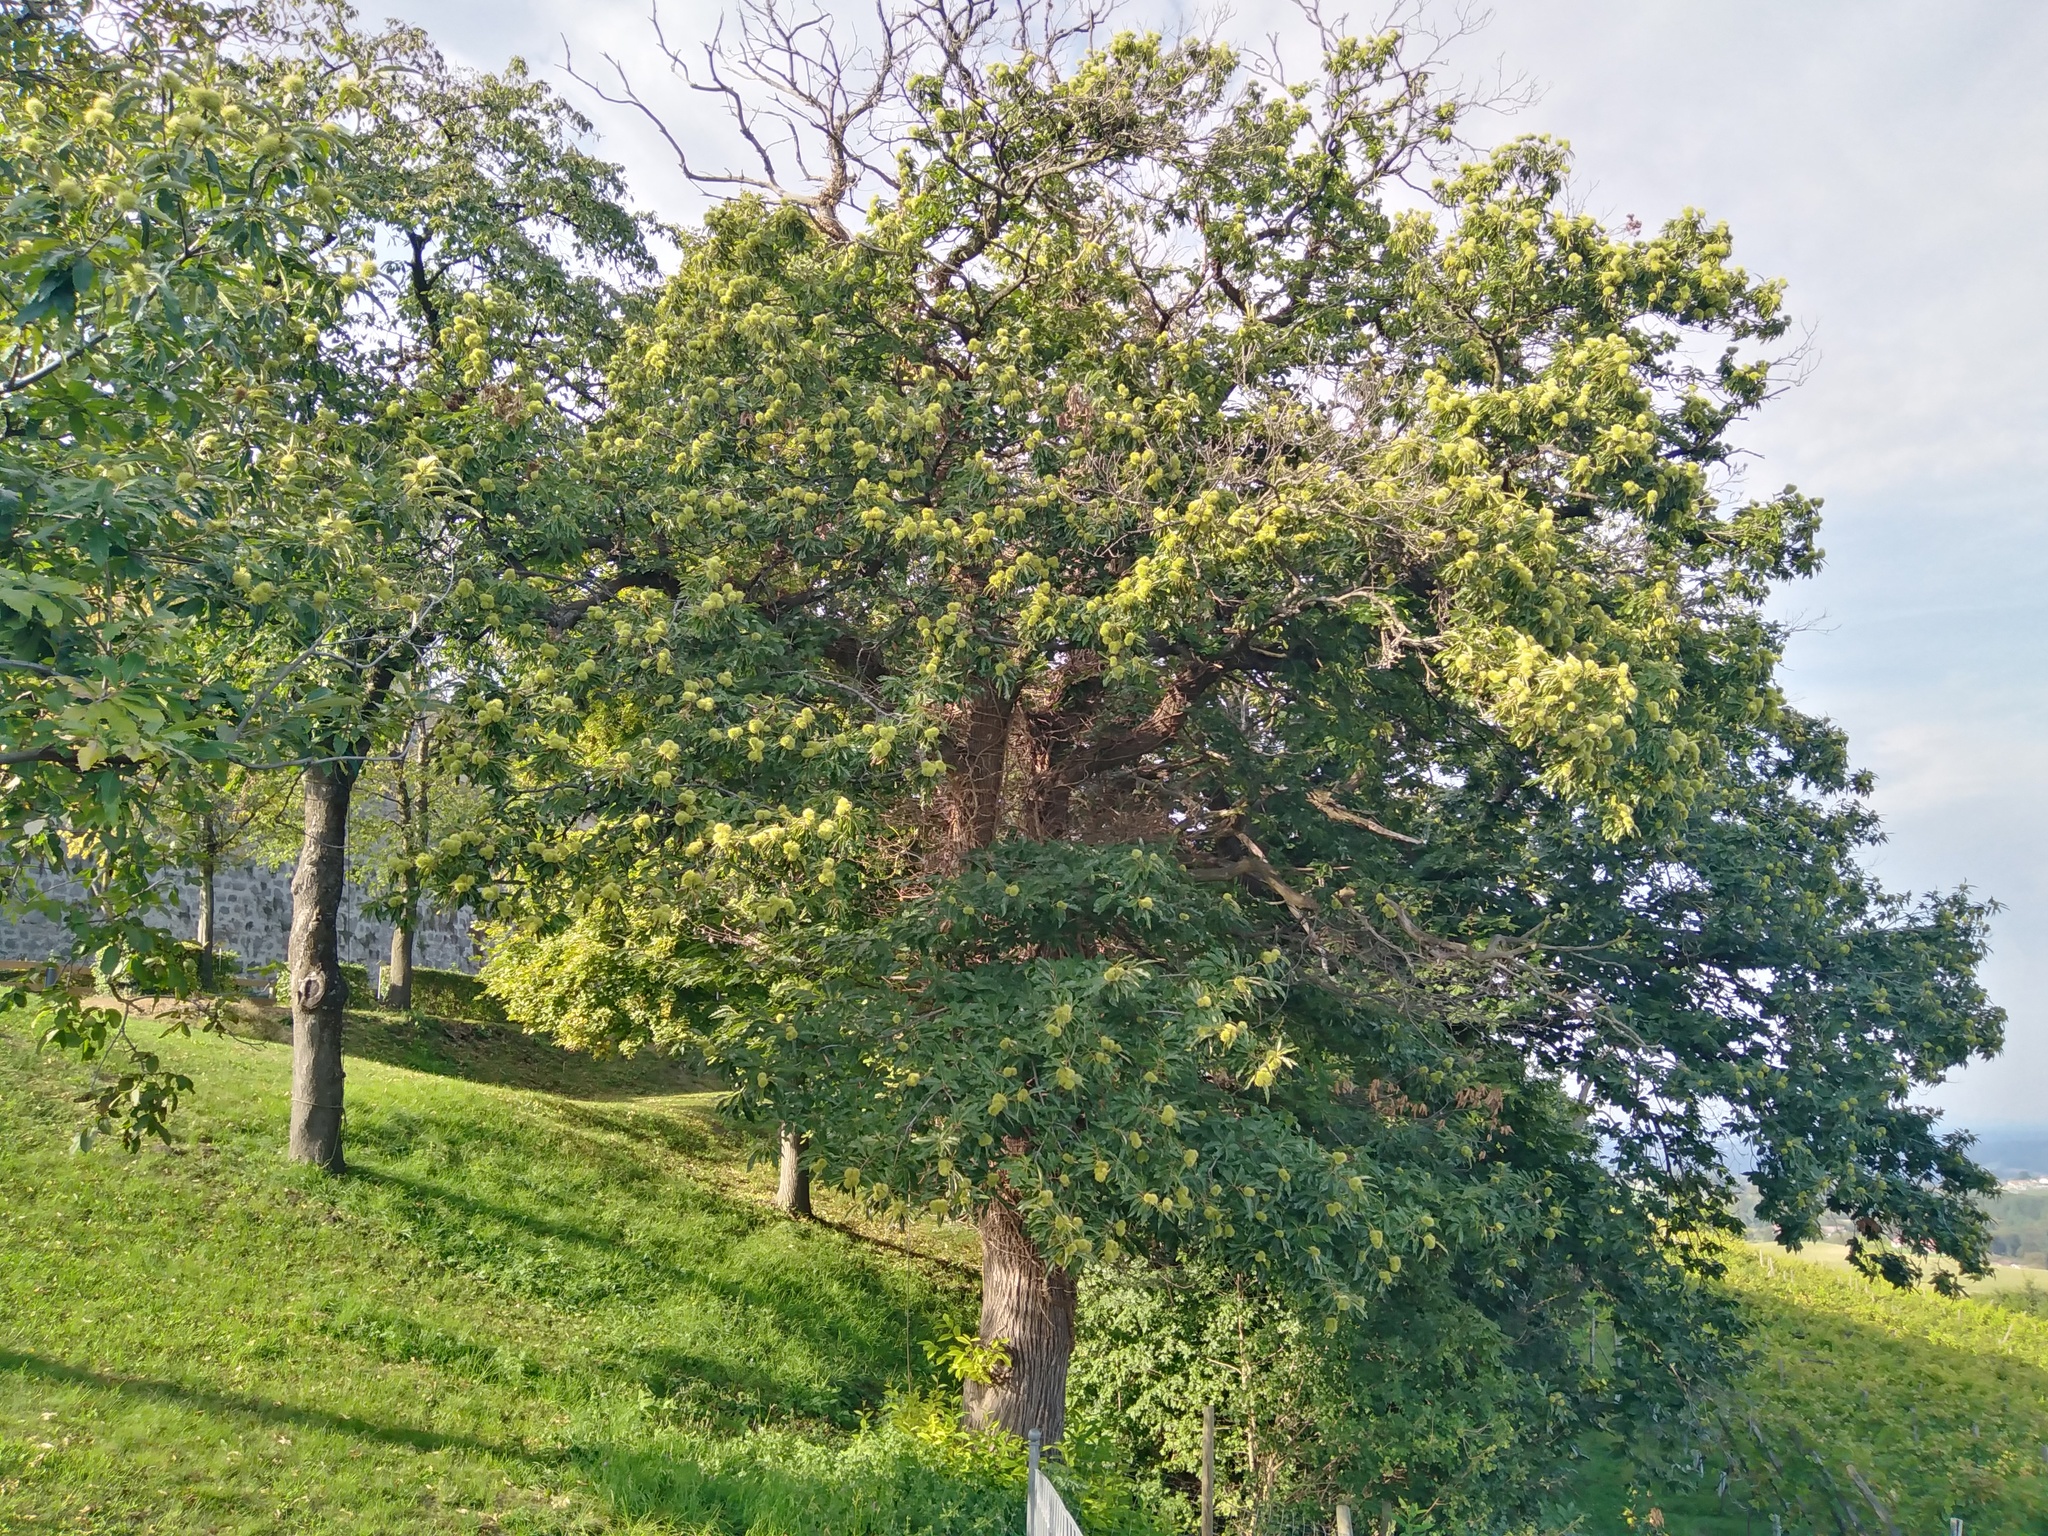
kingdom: Plantae
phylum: Tracheophyta
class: Magnoliopsida
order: Fagales
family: Fagaceae
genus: Castanea
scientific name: Castanea sativa
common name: Sweet chestnut
